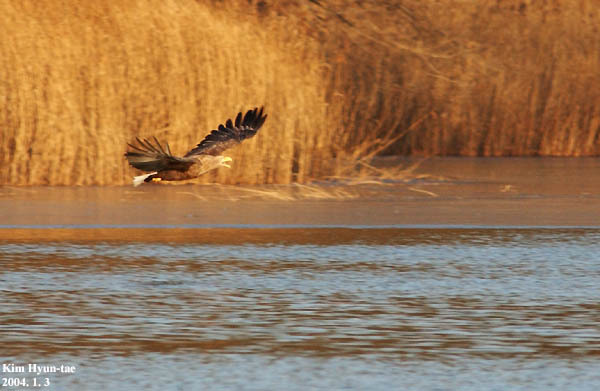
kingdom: Animalia
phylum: Chordata
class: Aves
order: Accipitriformes
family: Accipitridae
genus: Haliaeetus
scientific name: Haliaeetus albicilla
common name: White-tailed eagle
